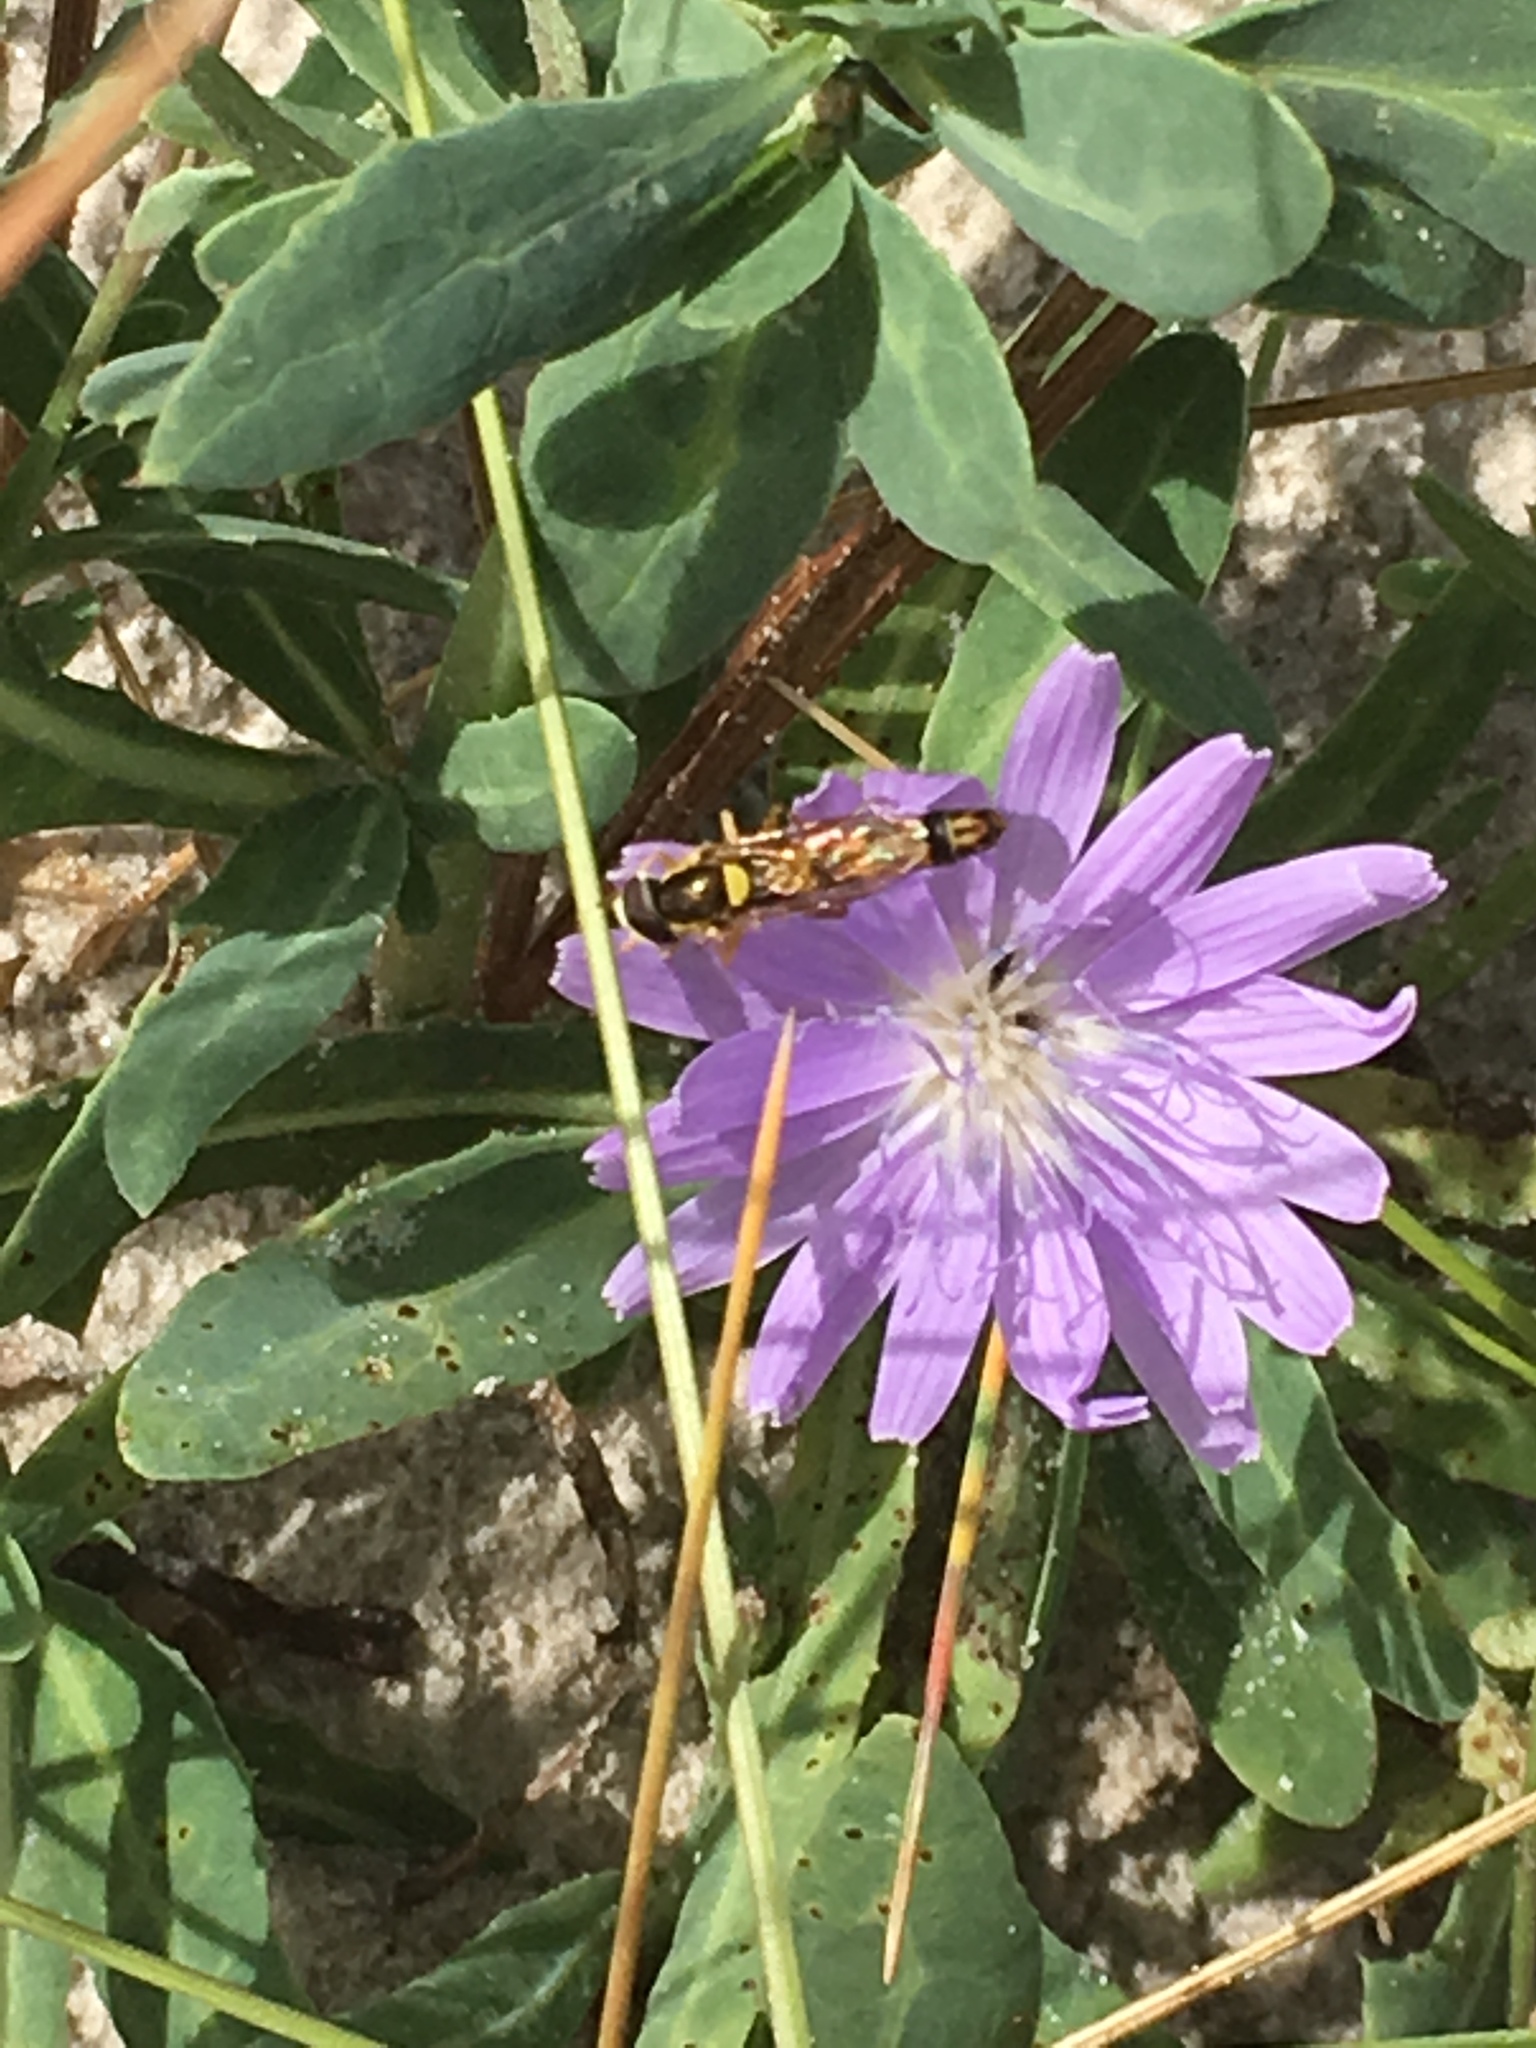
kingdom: Animalia
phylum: Arthropoda
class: Insecta
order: Diptera
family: Syrphidae
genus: Sphaerophoria
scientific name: Sphaerophoria scripta
